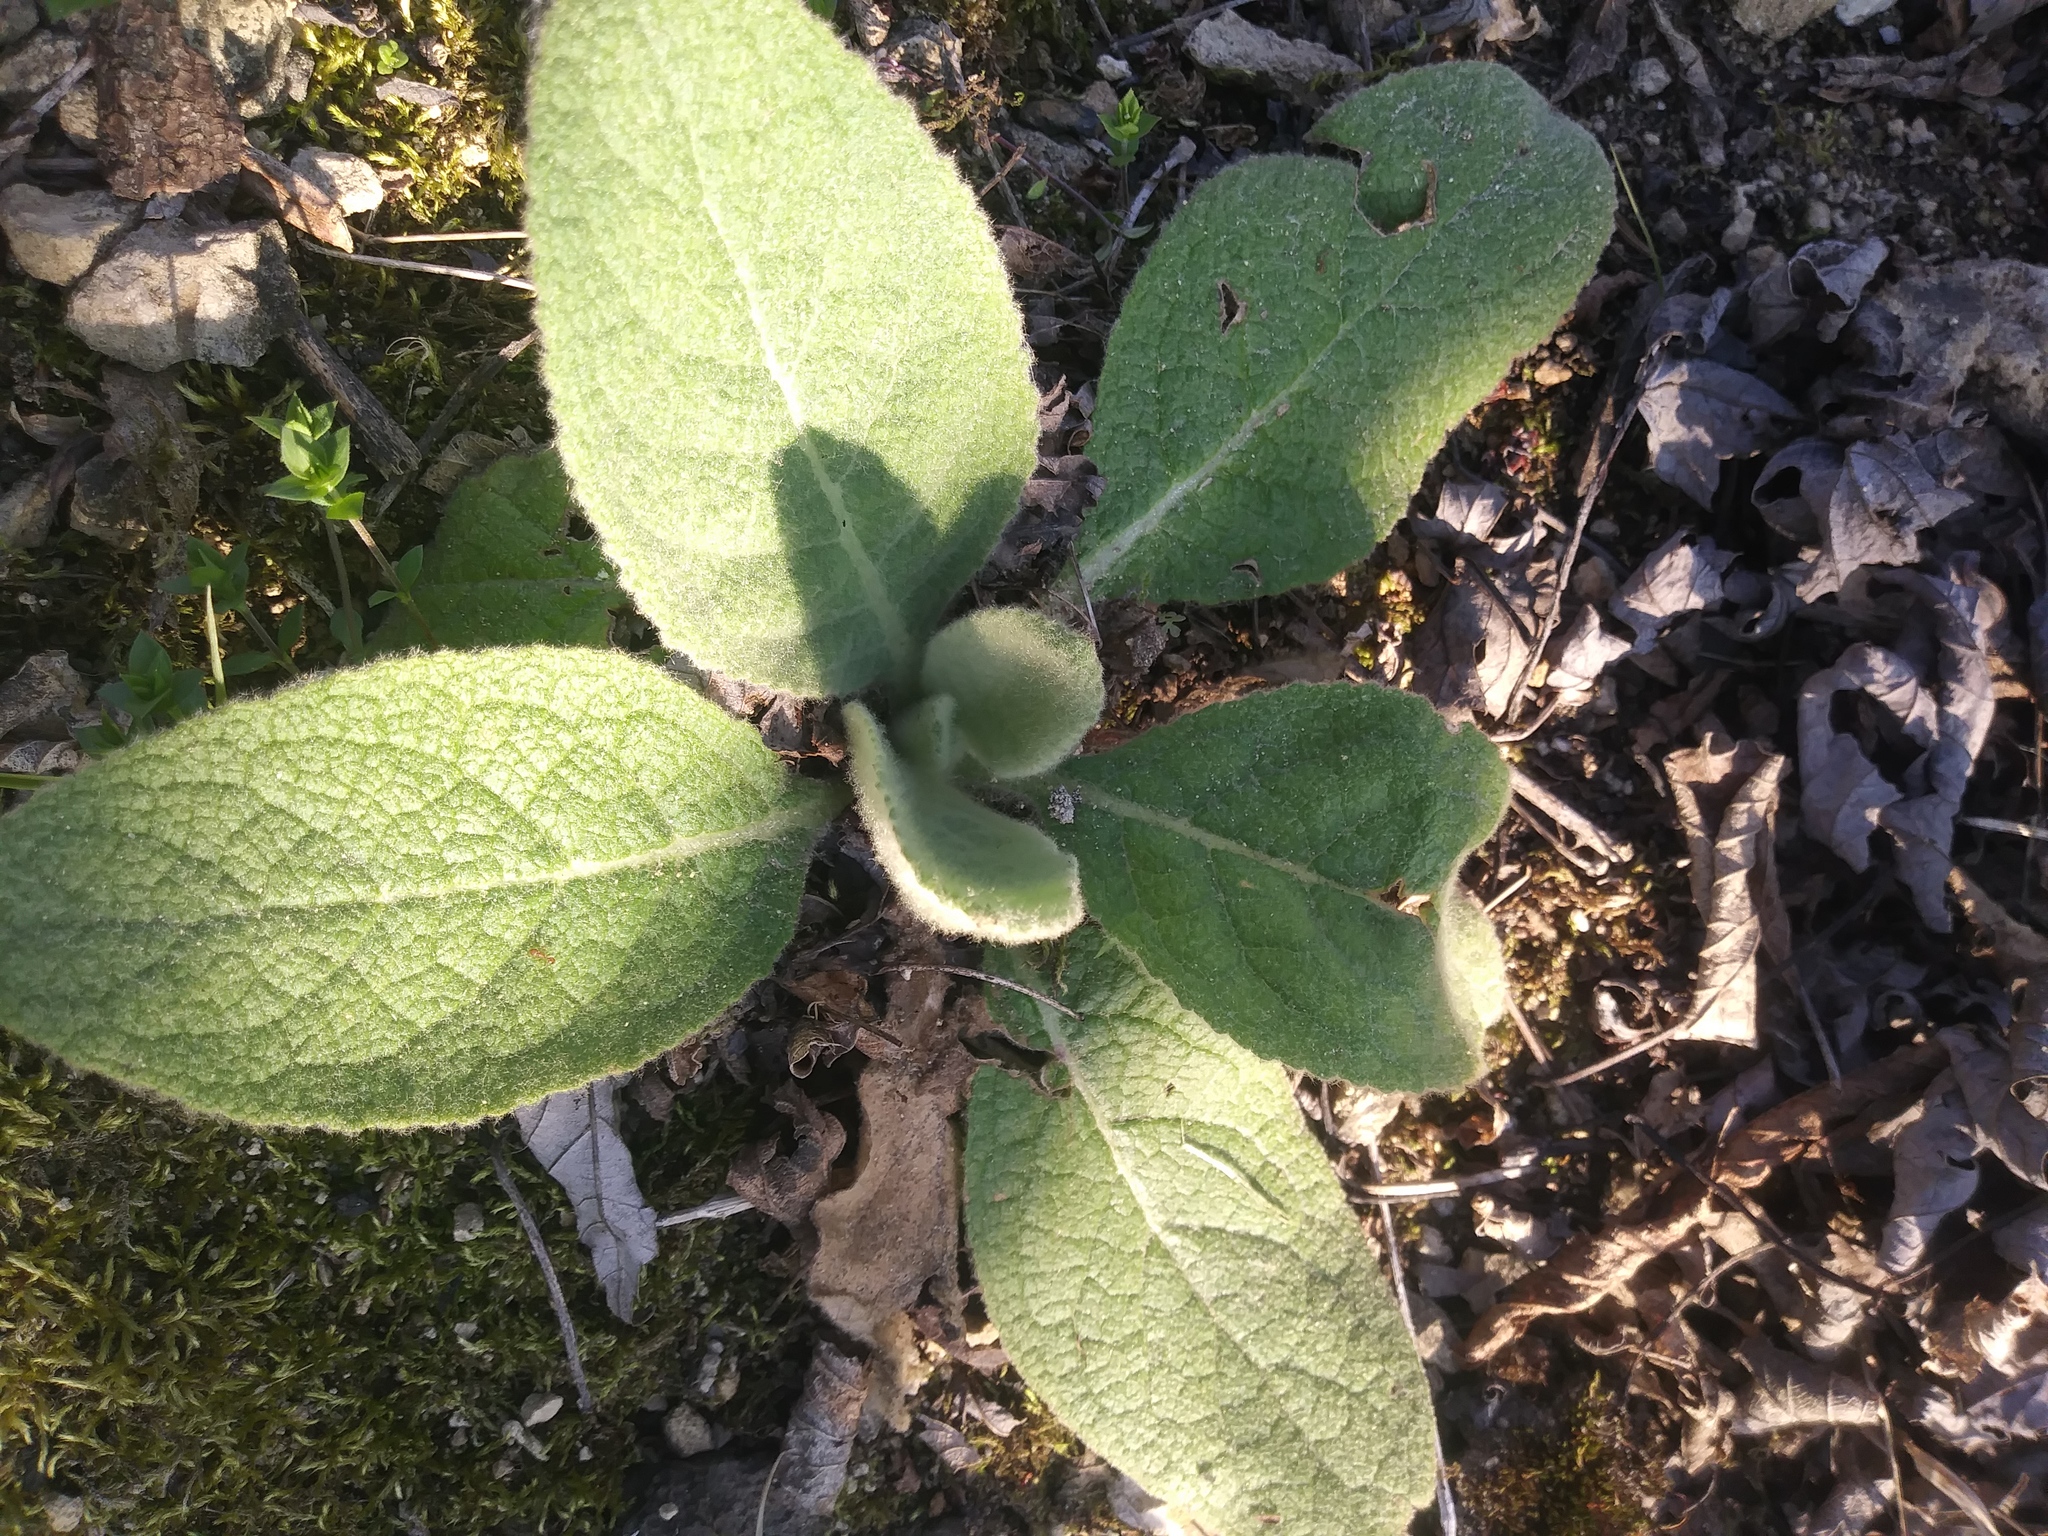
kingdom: Plantae
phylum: Tracheophyta
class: Magnoliopsida
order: Lamiales
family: Scrophulariaceae
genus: Verbascum
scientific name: Verbascum thapsus
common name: Common mullein
